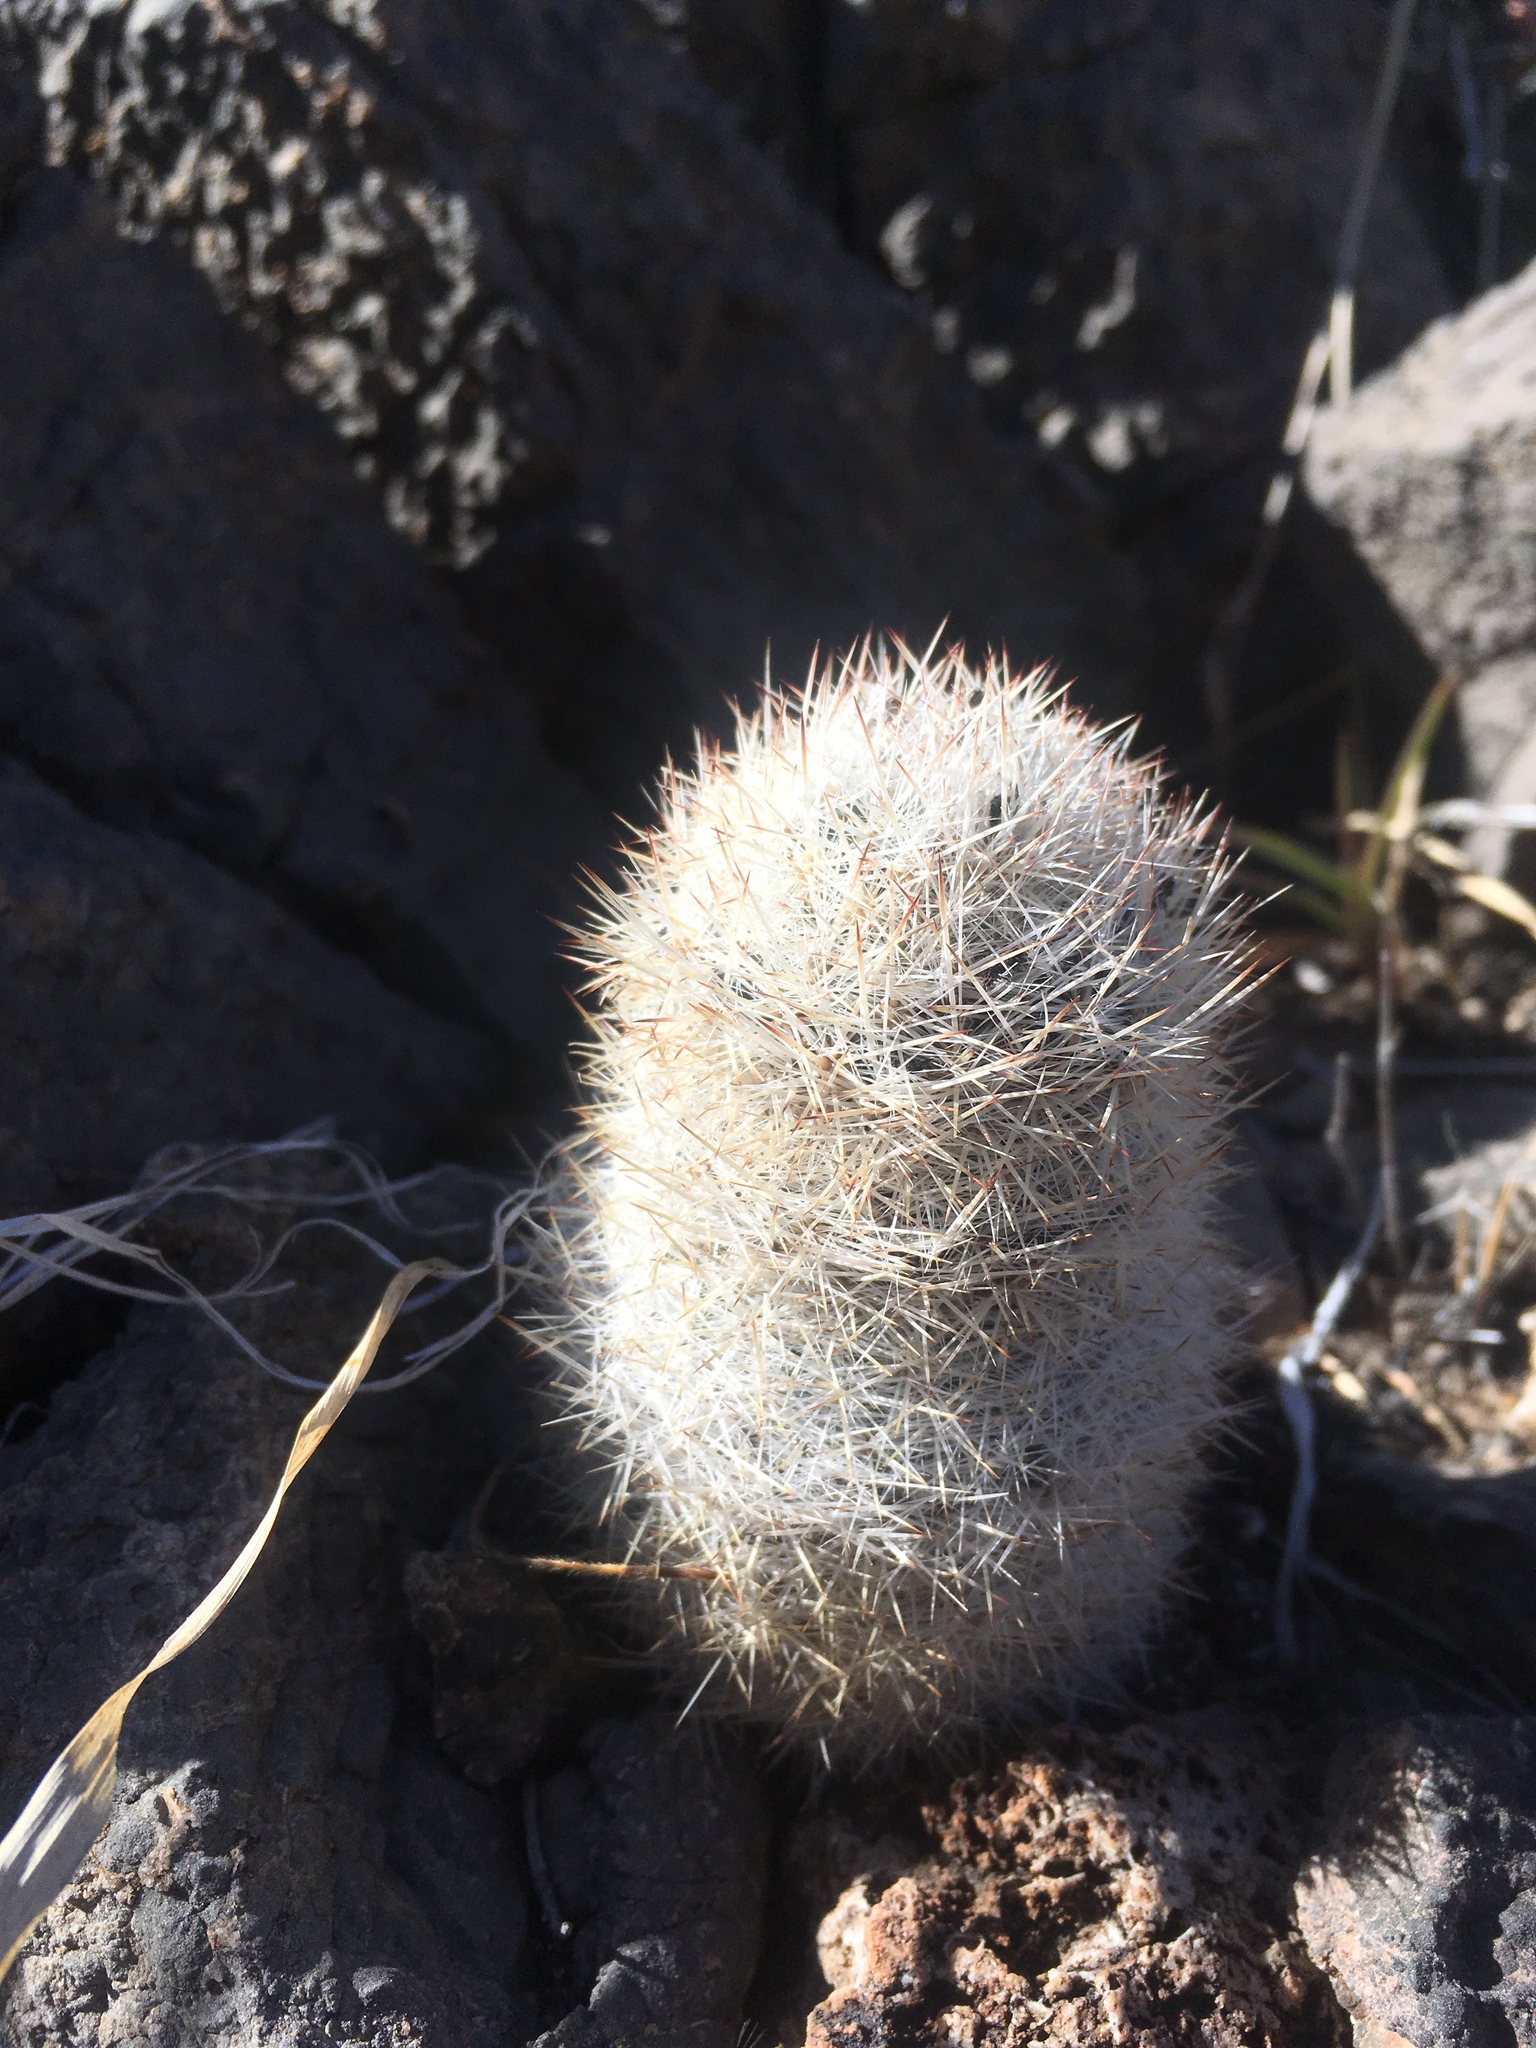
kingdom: Plantae
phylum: Tracheophyta
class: Magnoliopsida
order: Caryophyllales
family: Cactaceae
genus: Pelecyphora
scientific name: Pelecyphora sneedii
